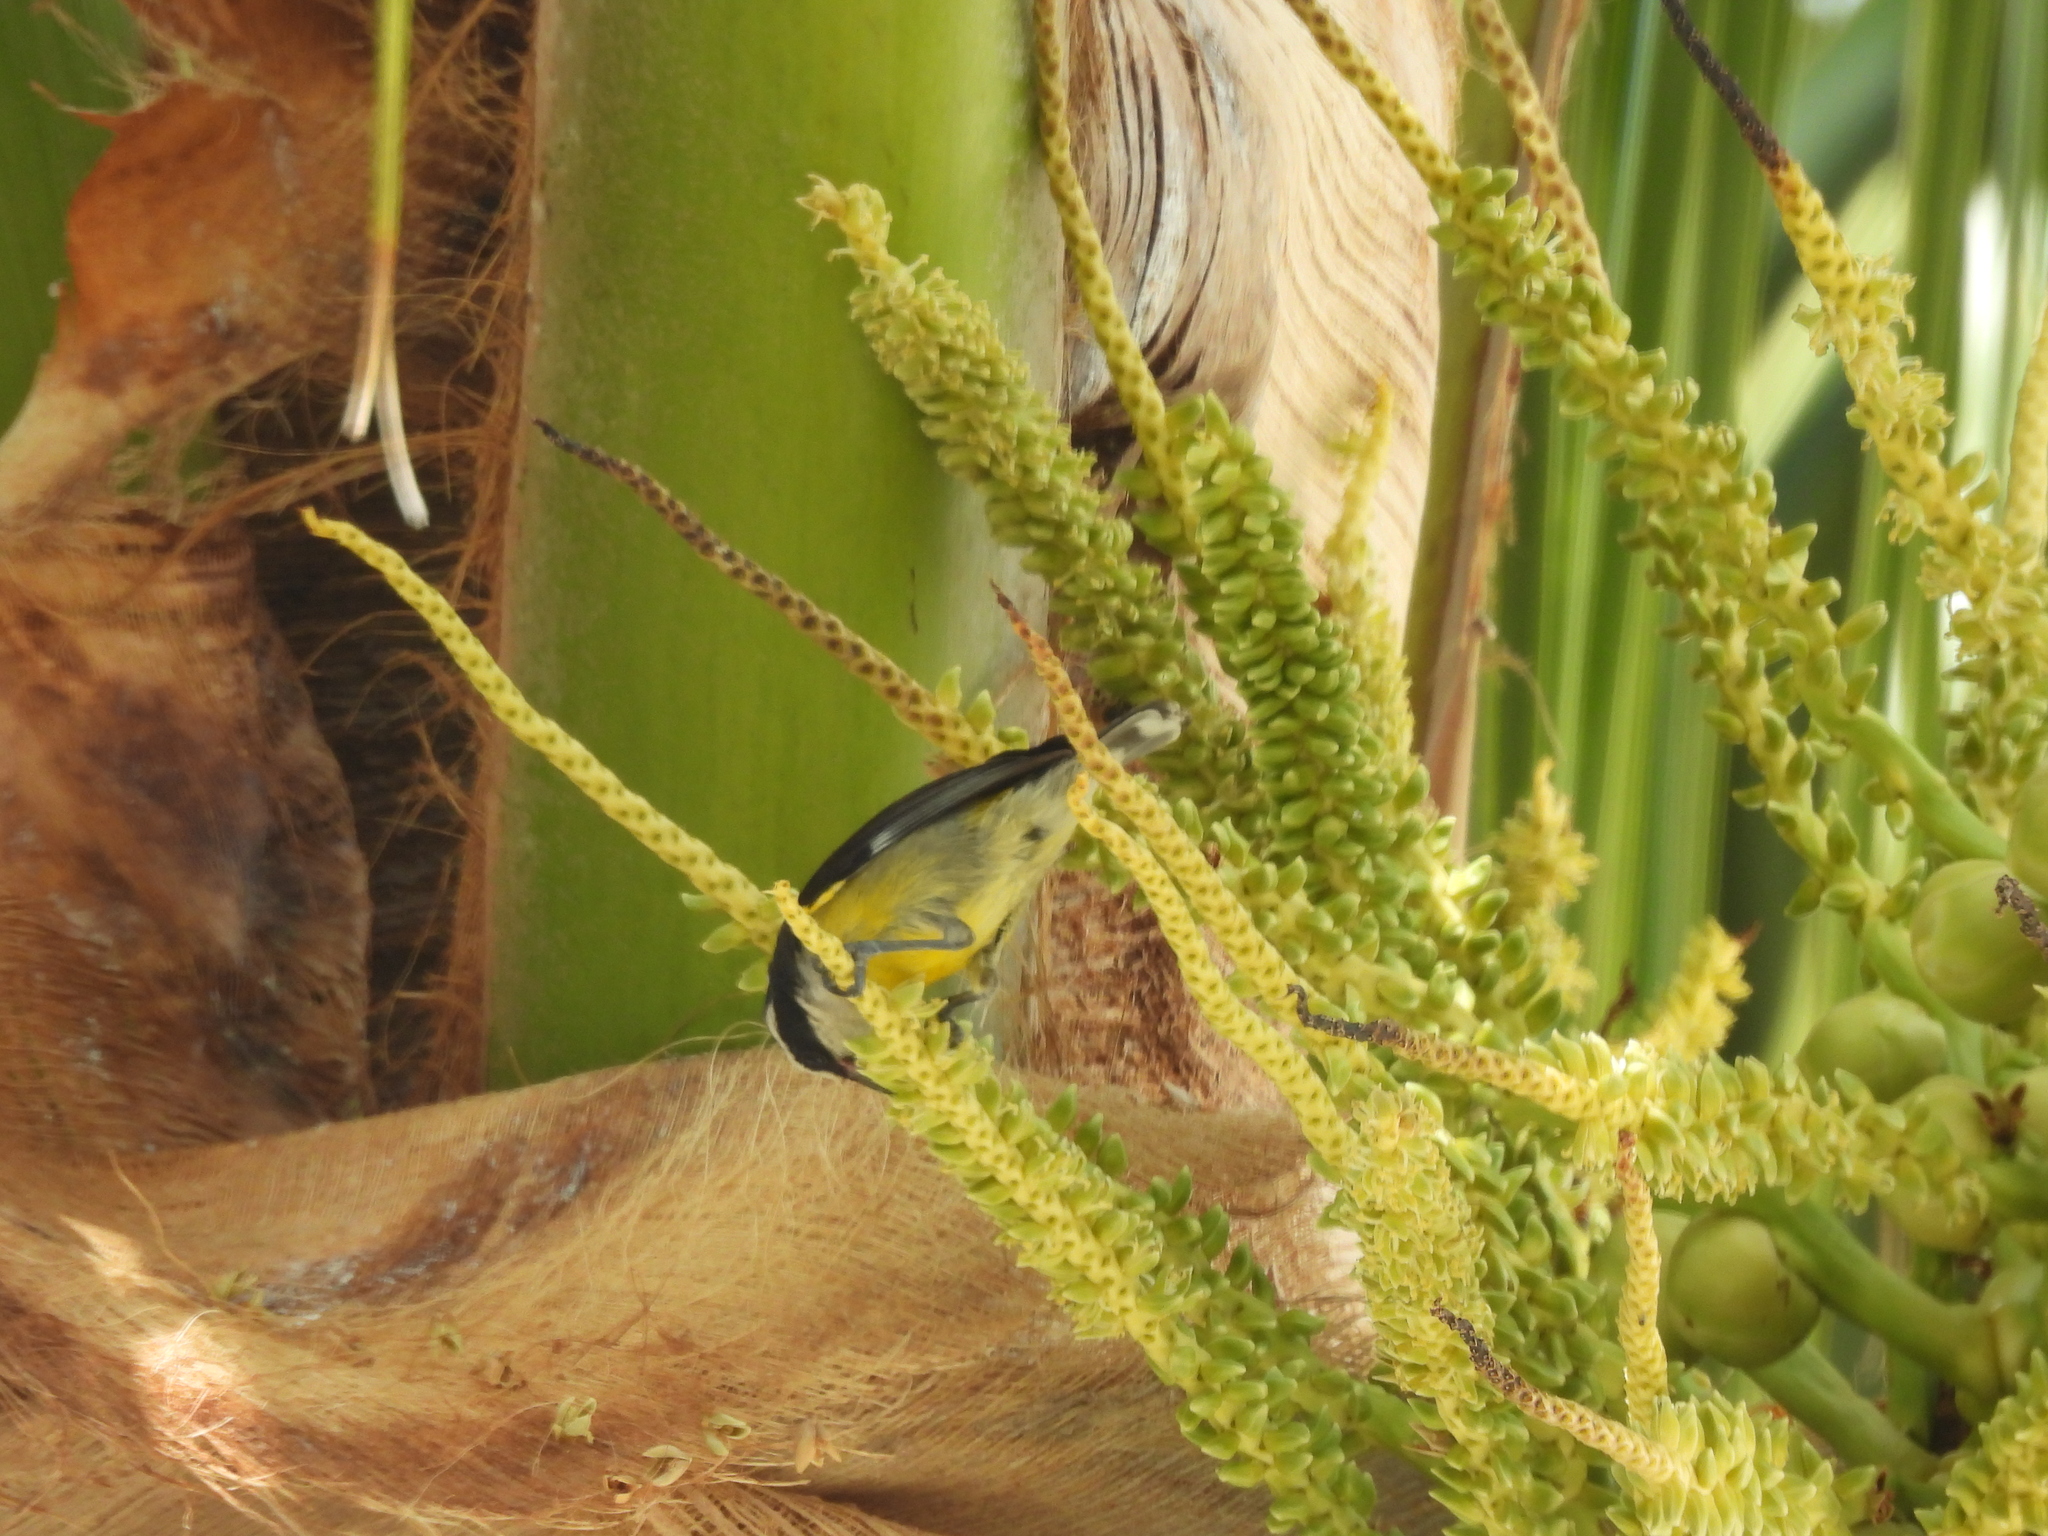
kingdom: Animalia
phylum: Chordata
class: Aves
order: Passeriformes
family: Thraupidae
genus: Coereba
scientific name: Coereba flaveola
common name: Bananaquit
